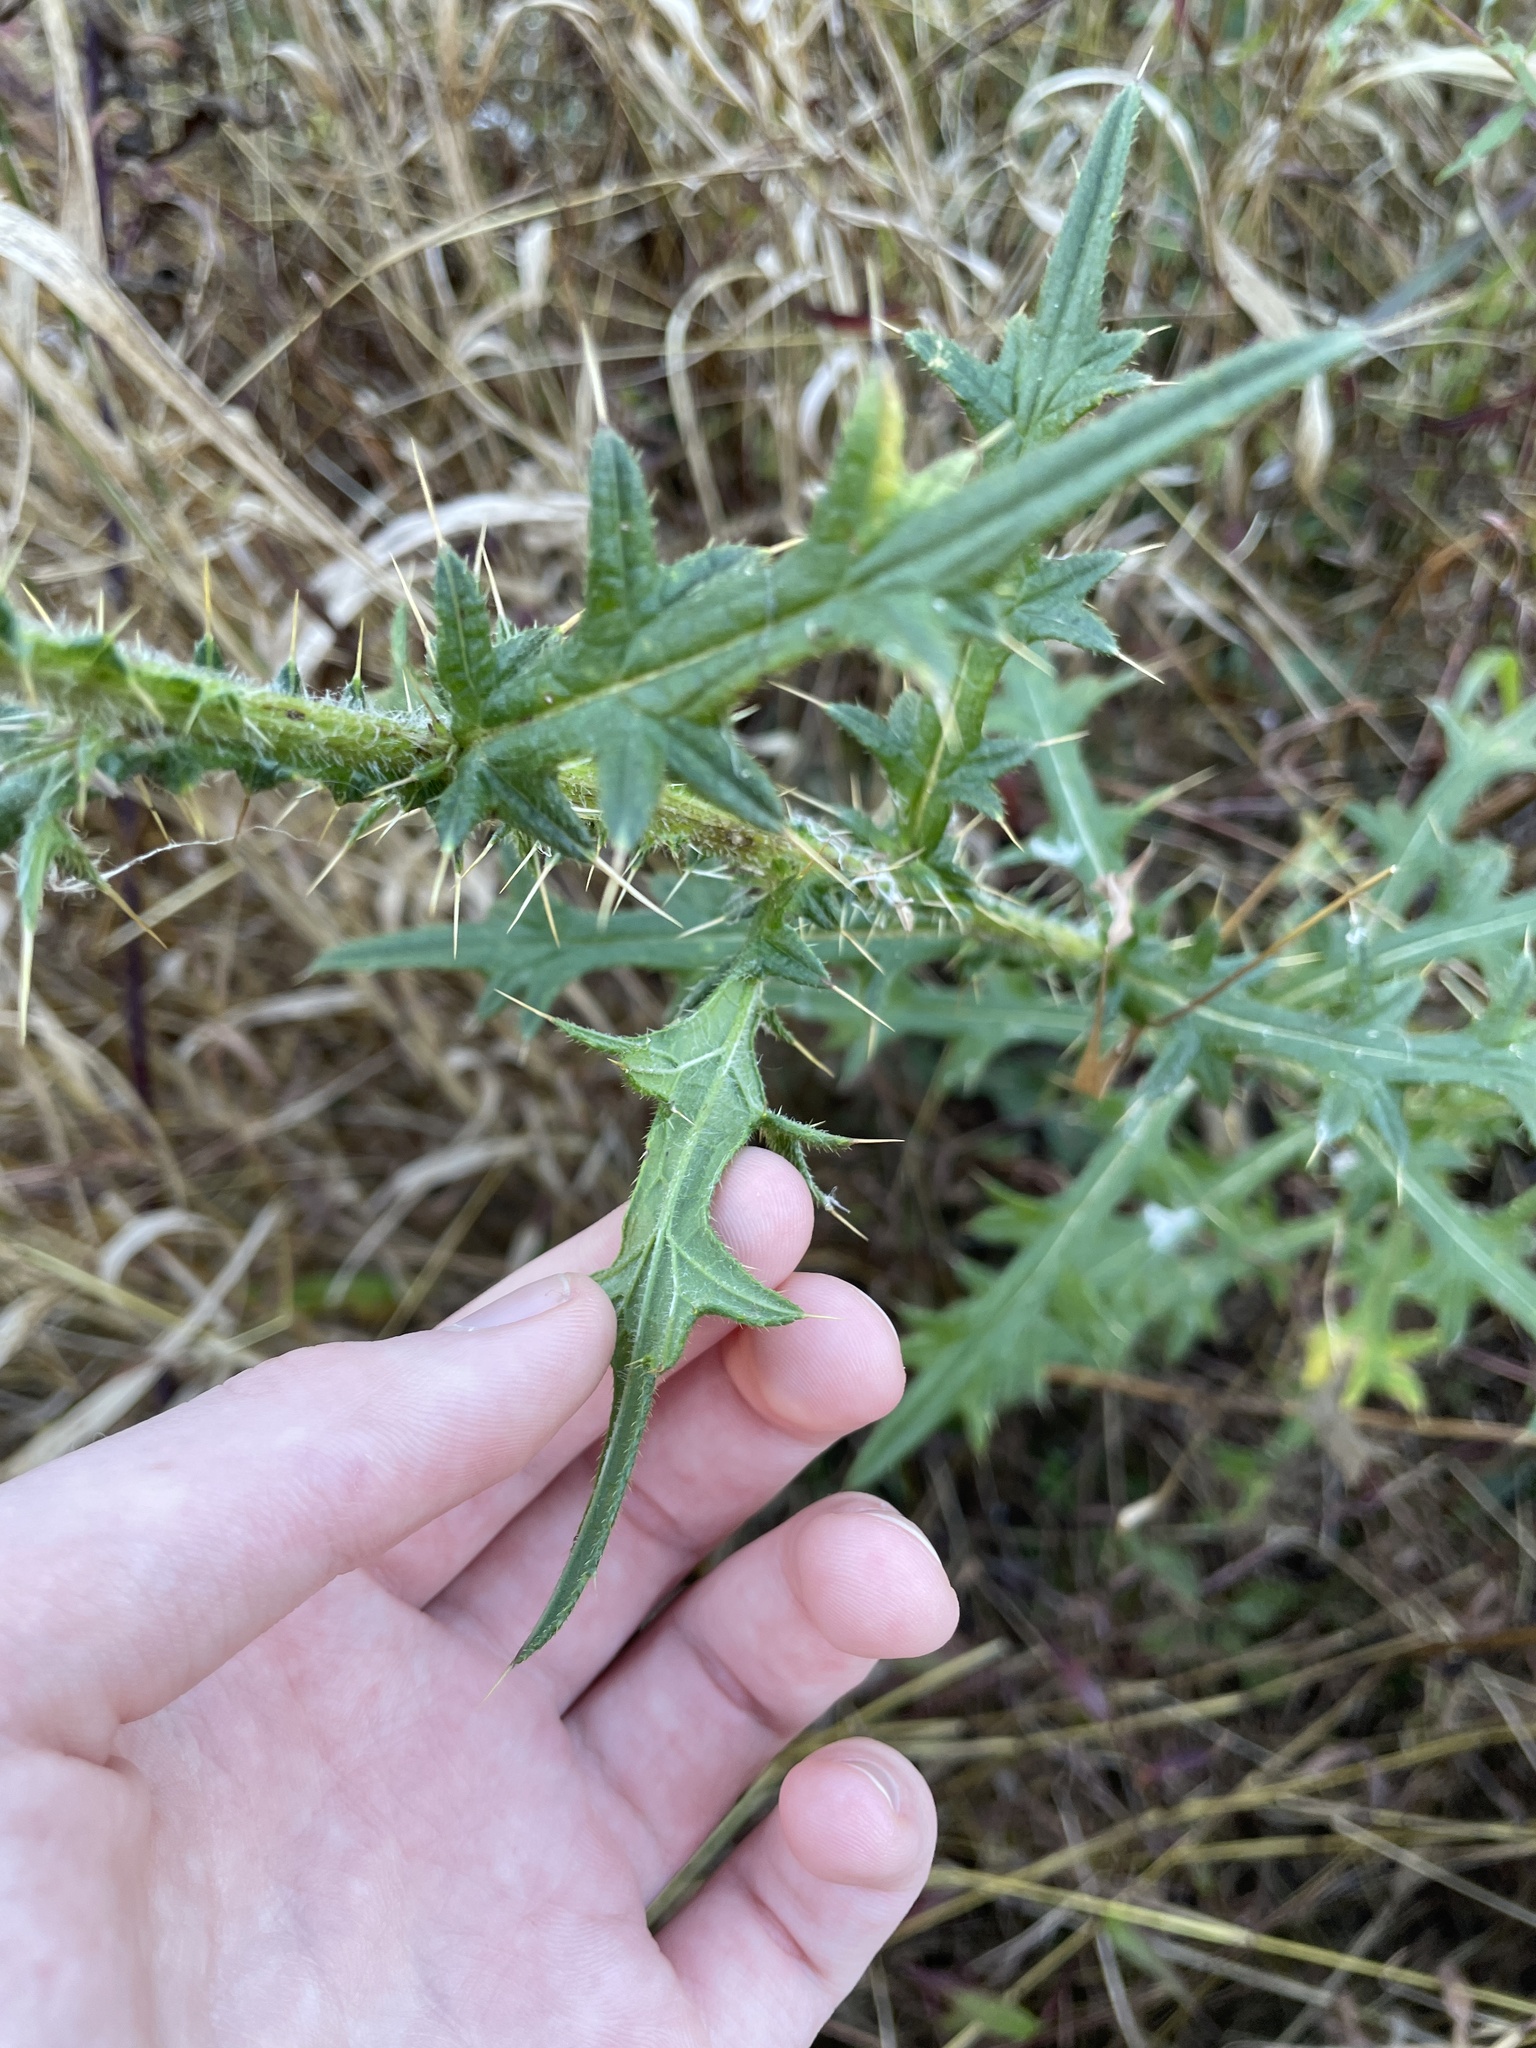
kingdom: Plantae
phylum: Tracheophyta
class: Magnoliopsida
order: Asterales
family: Asteraceae
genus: Cirsium
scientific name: Cirsium vulgare
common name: Bull thistle
